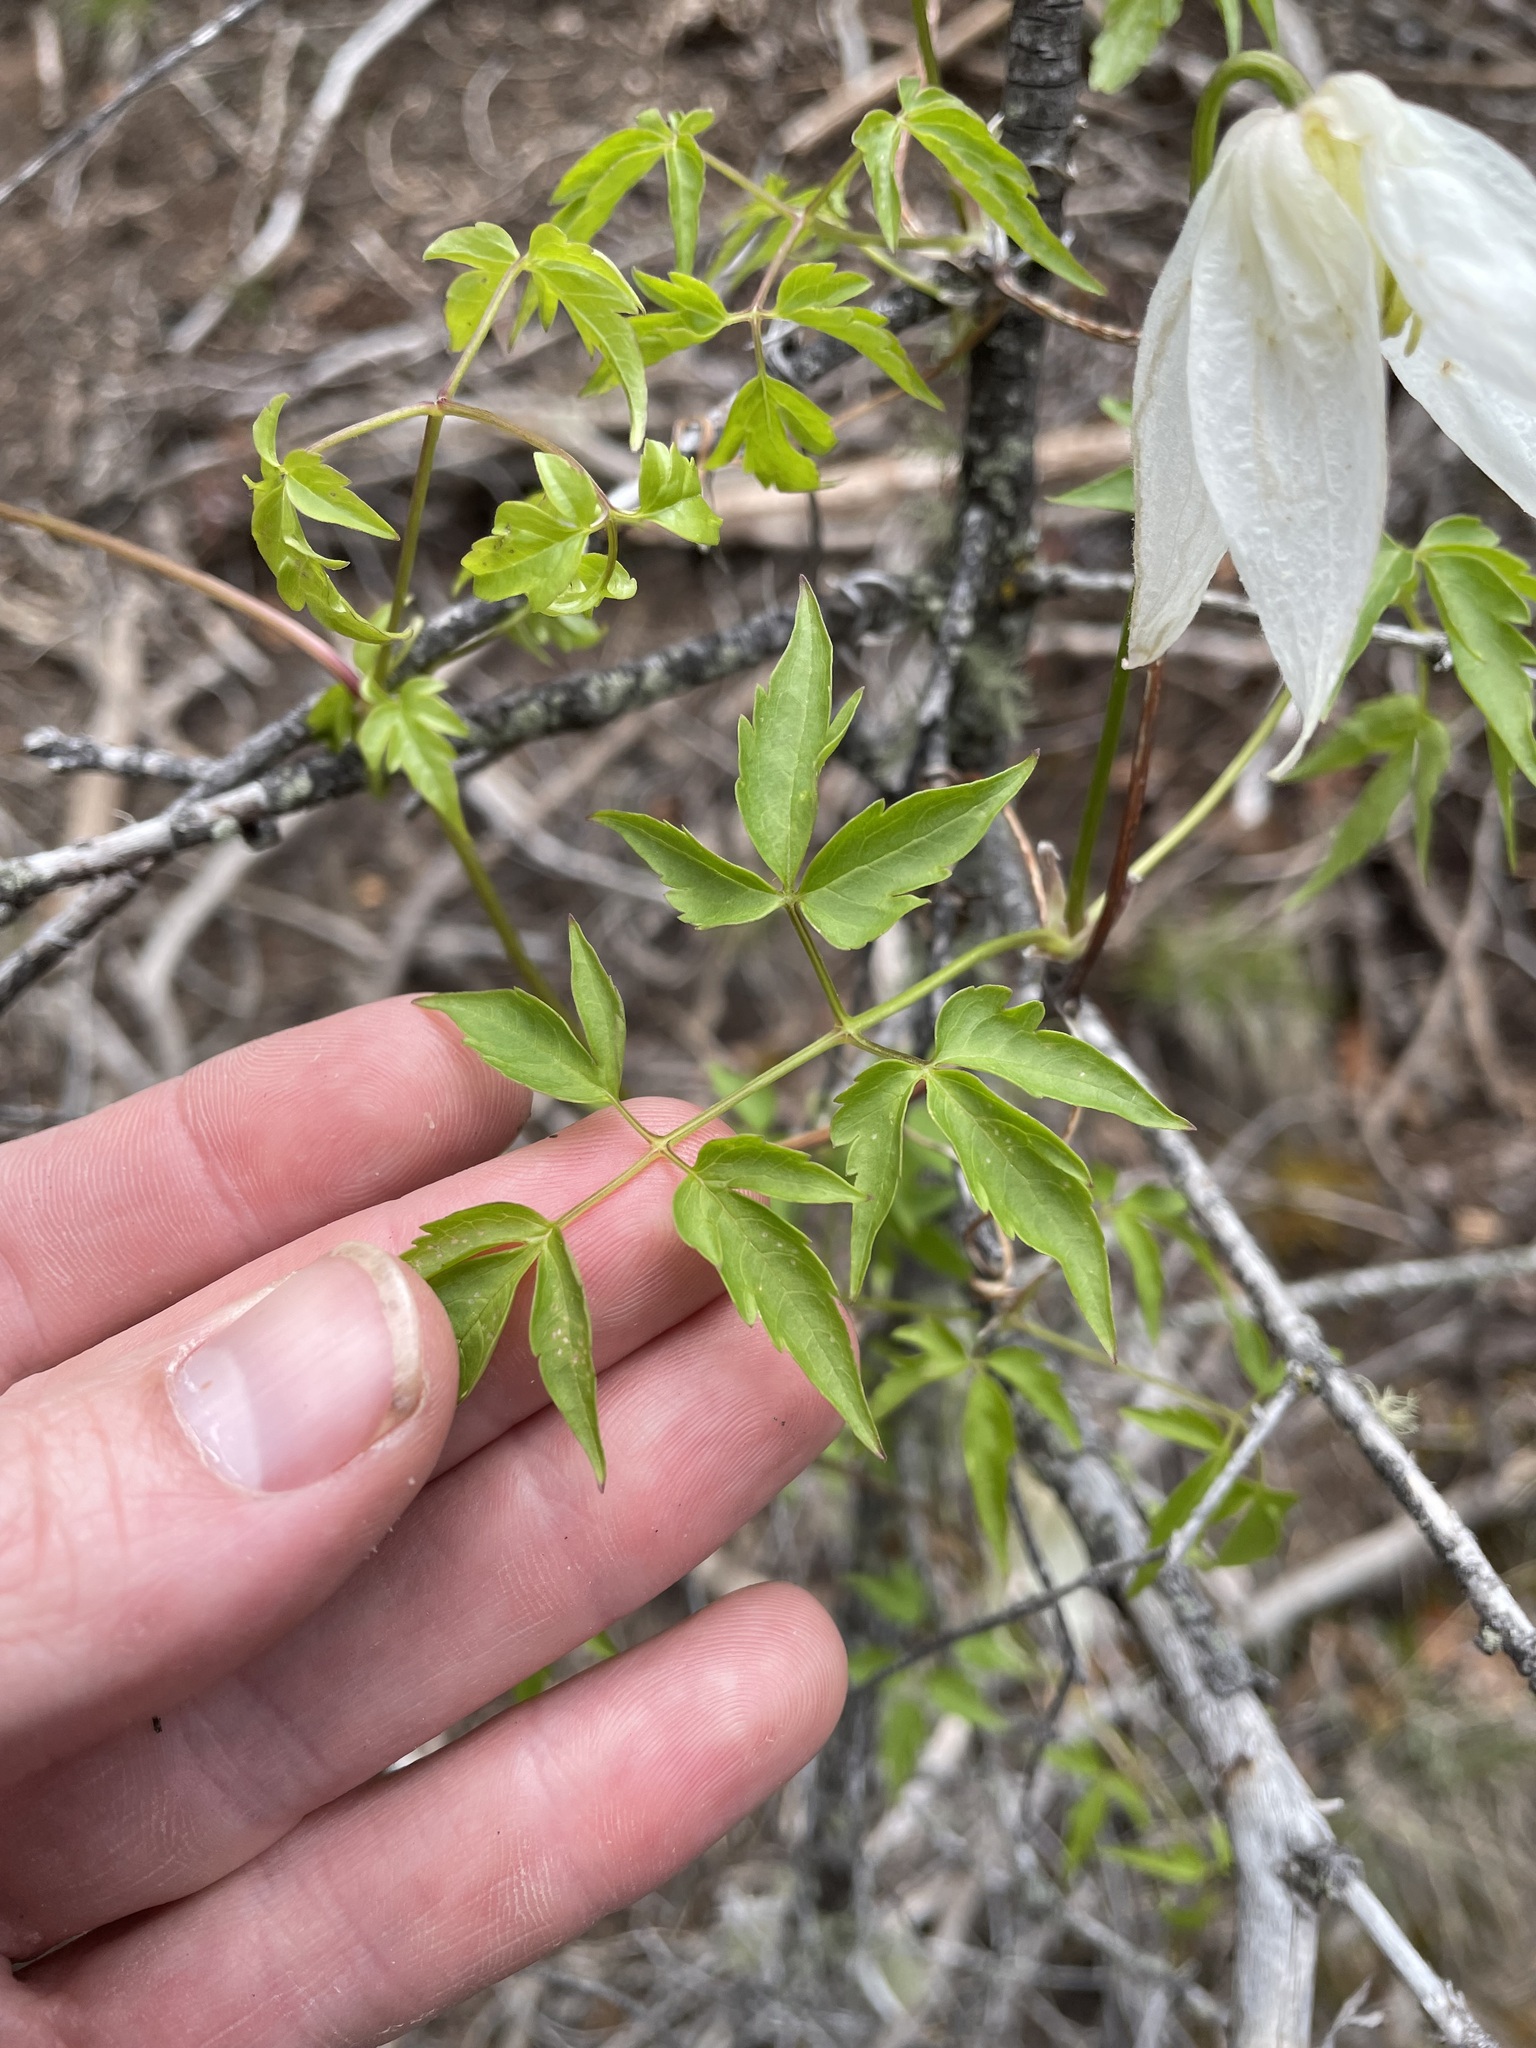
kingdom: Plantae
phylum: Tracheophyta
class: Magnoliopsida
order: Ranunculales
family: Ranunculaceae
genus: Clematis
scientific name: Clematis columbiana
